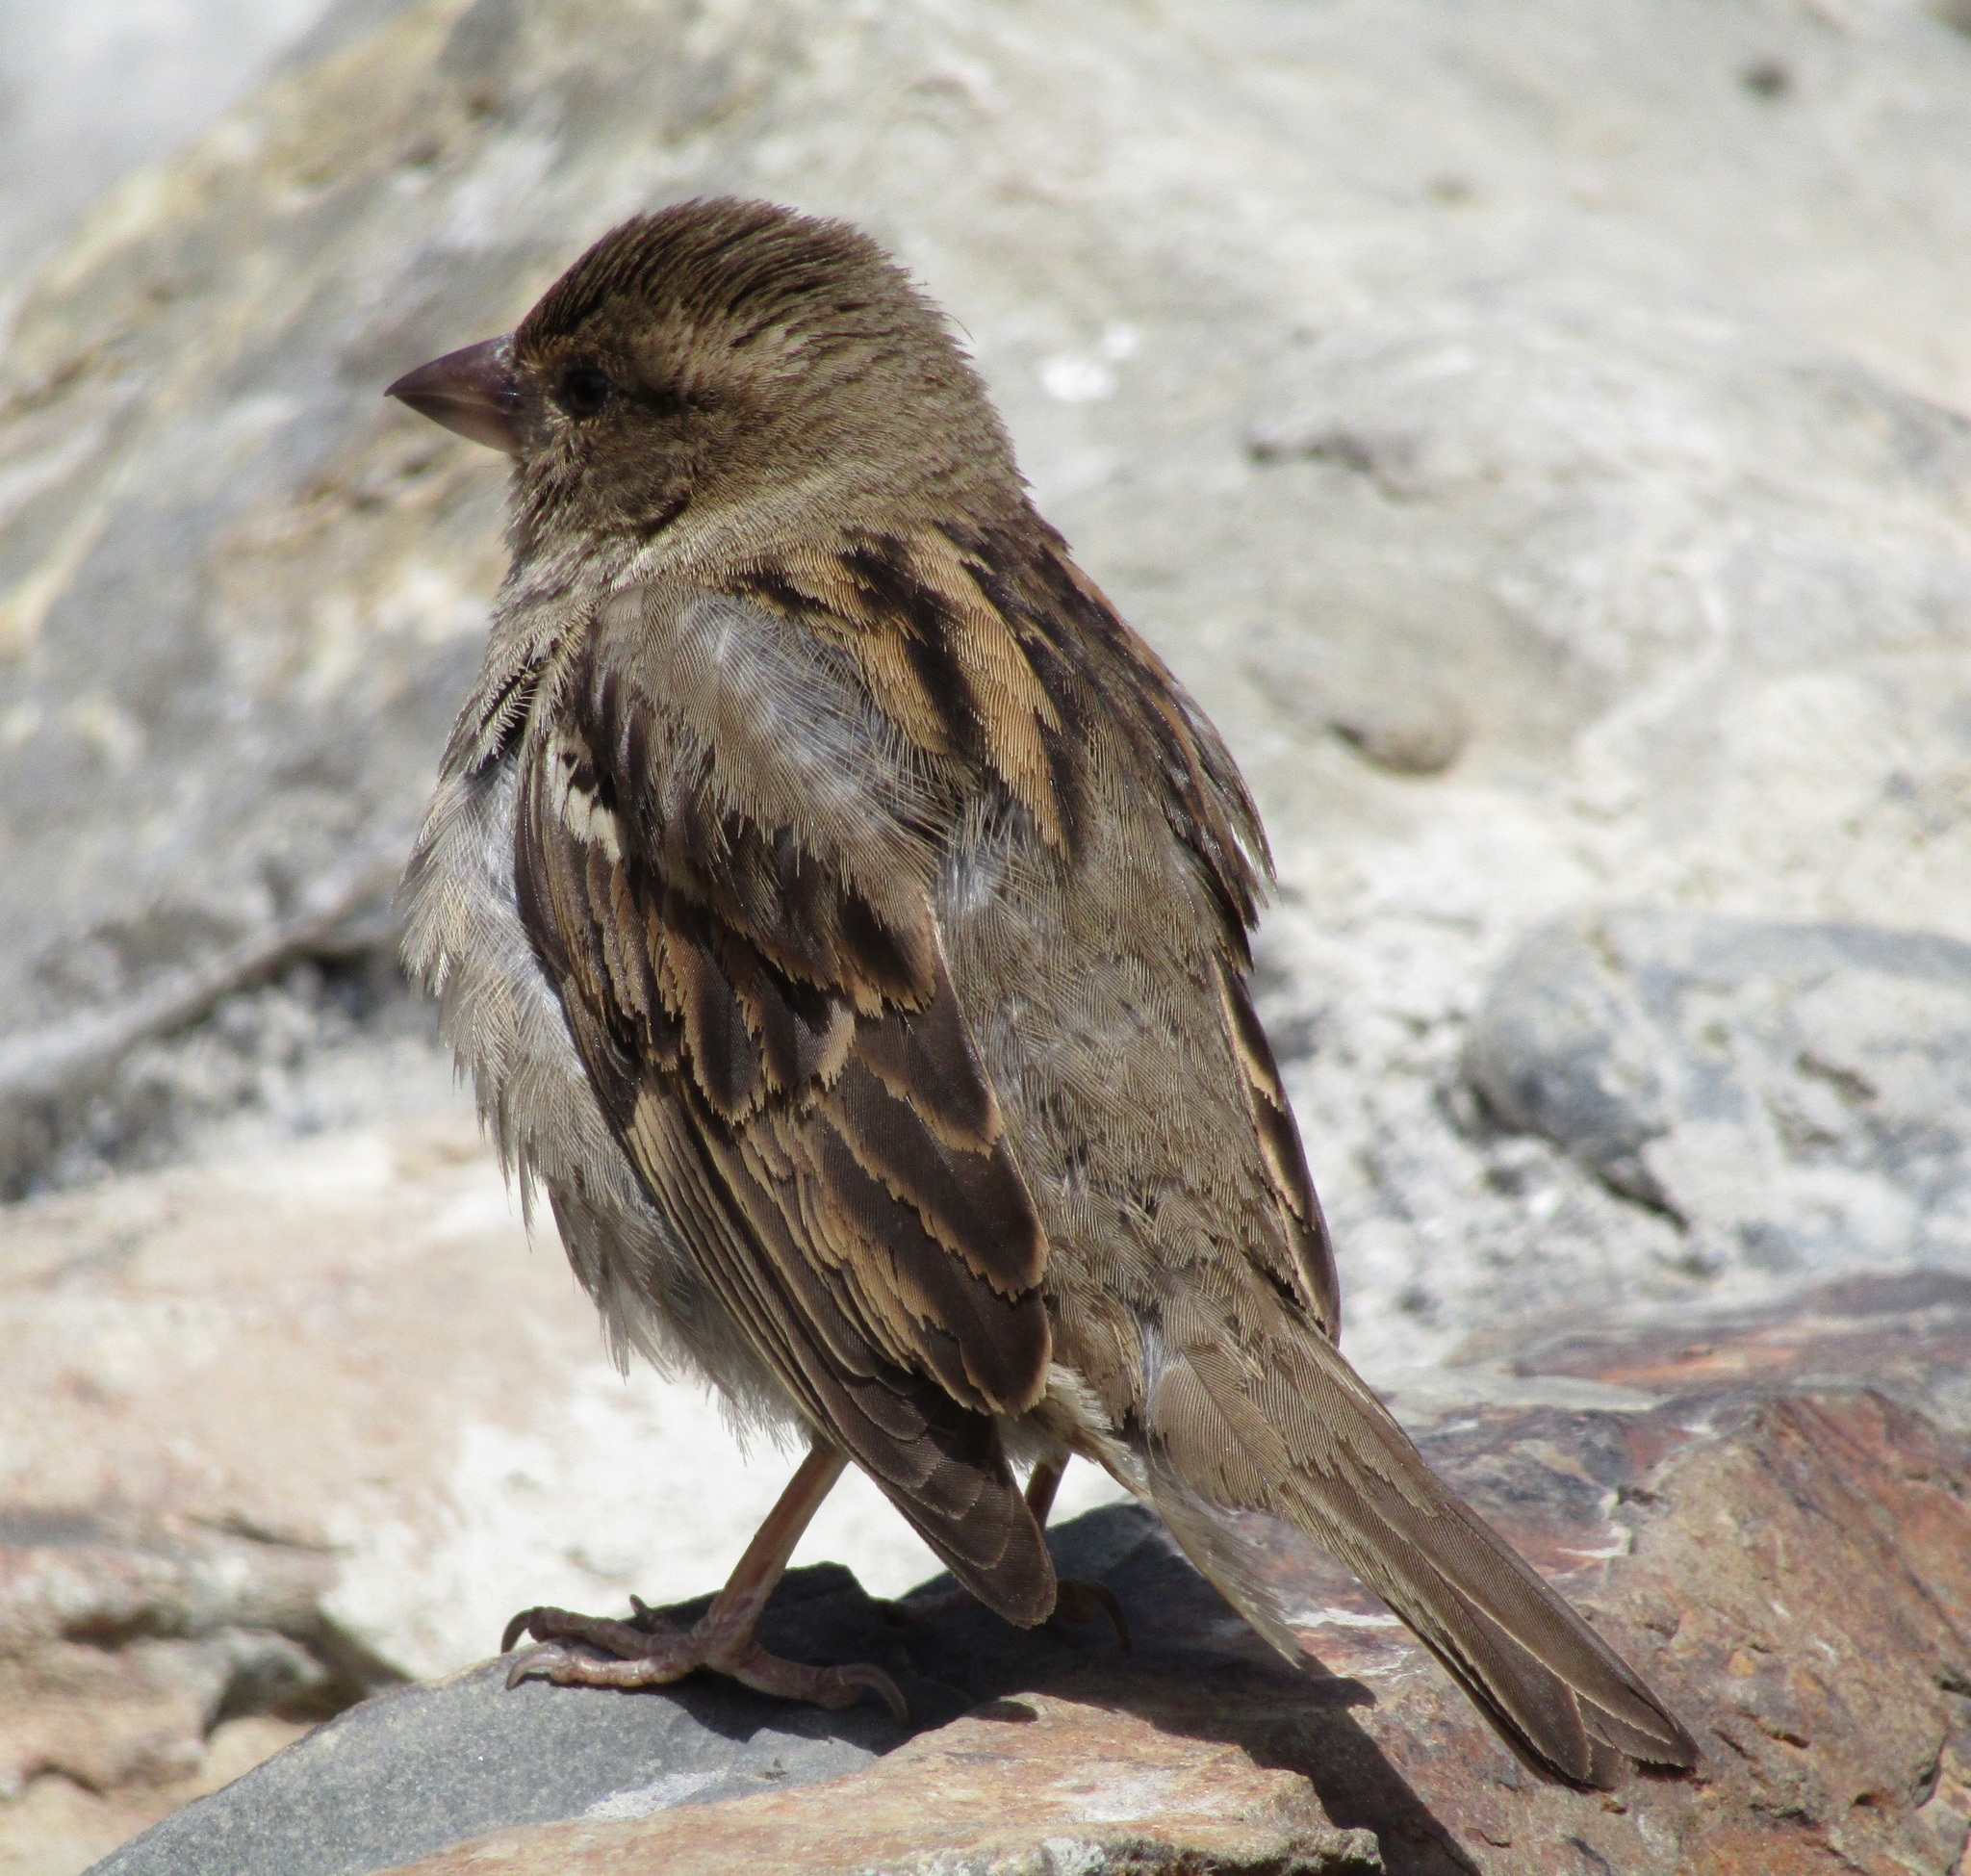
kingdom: Animalia
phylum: Chordata
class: Aves
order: Passeriformes
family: Passeridae
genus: Passer
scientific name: Passer domesticus
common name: House sparrow
